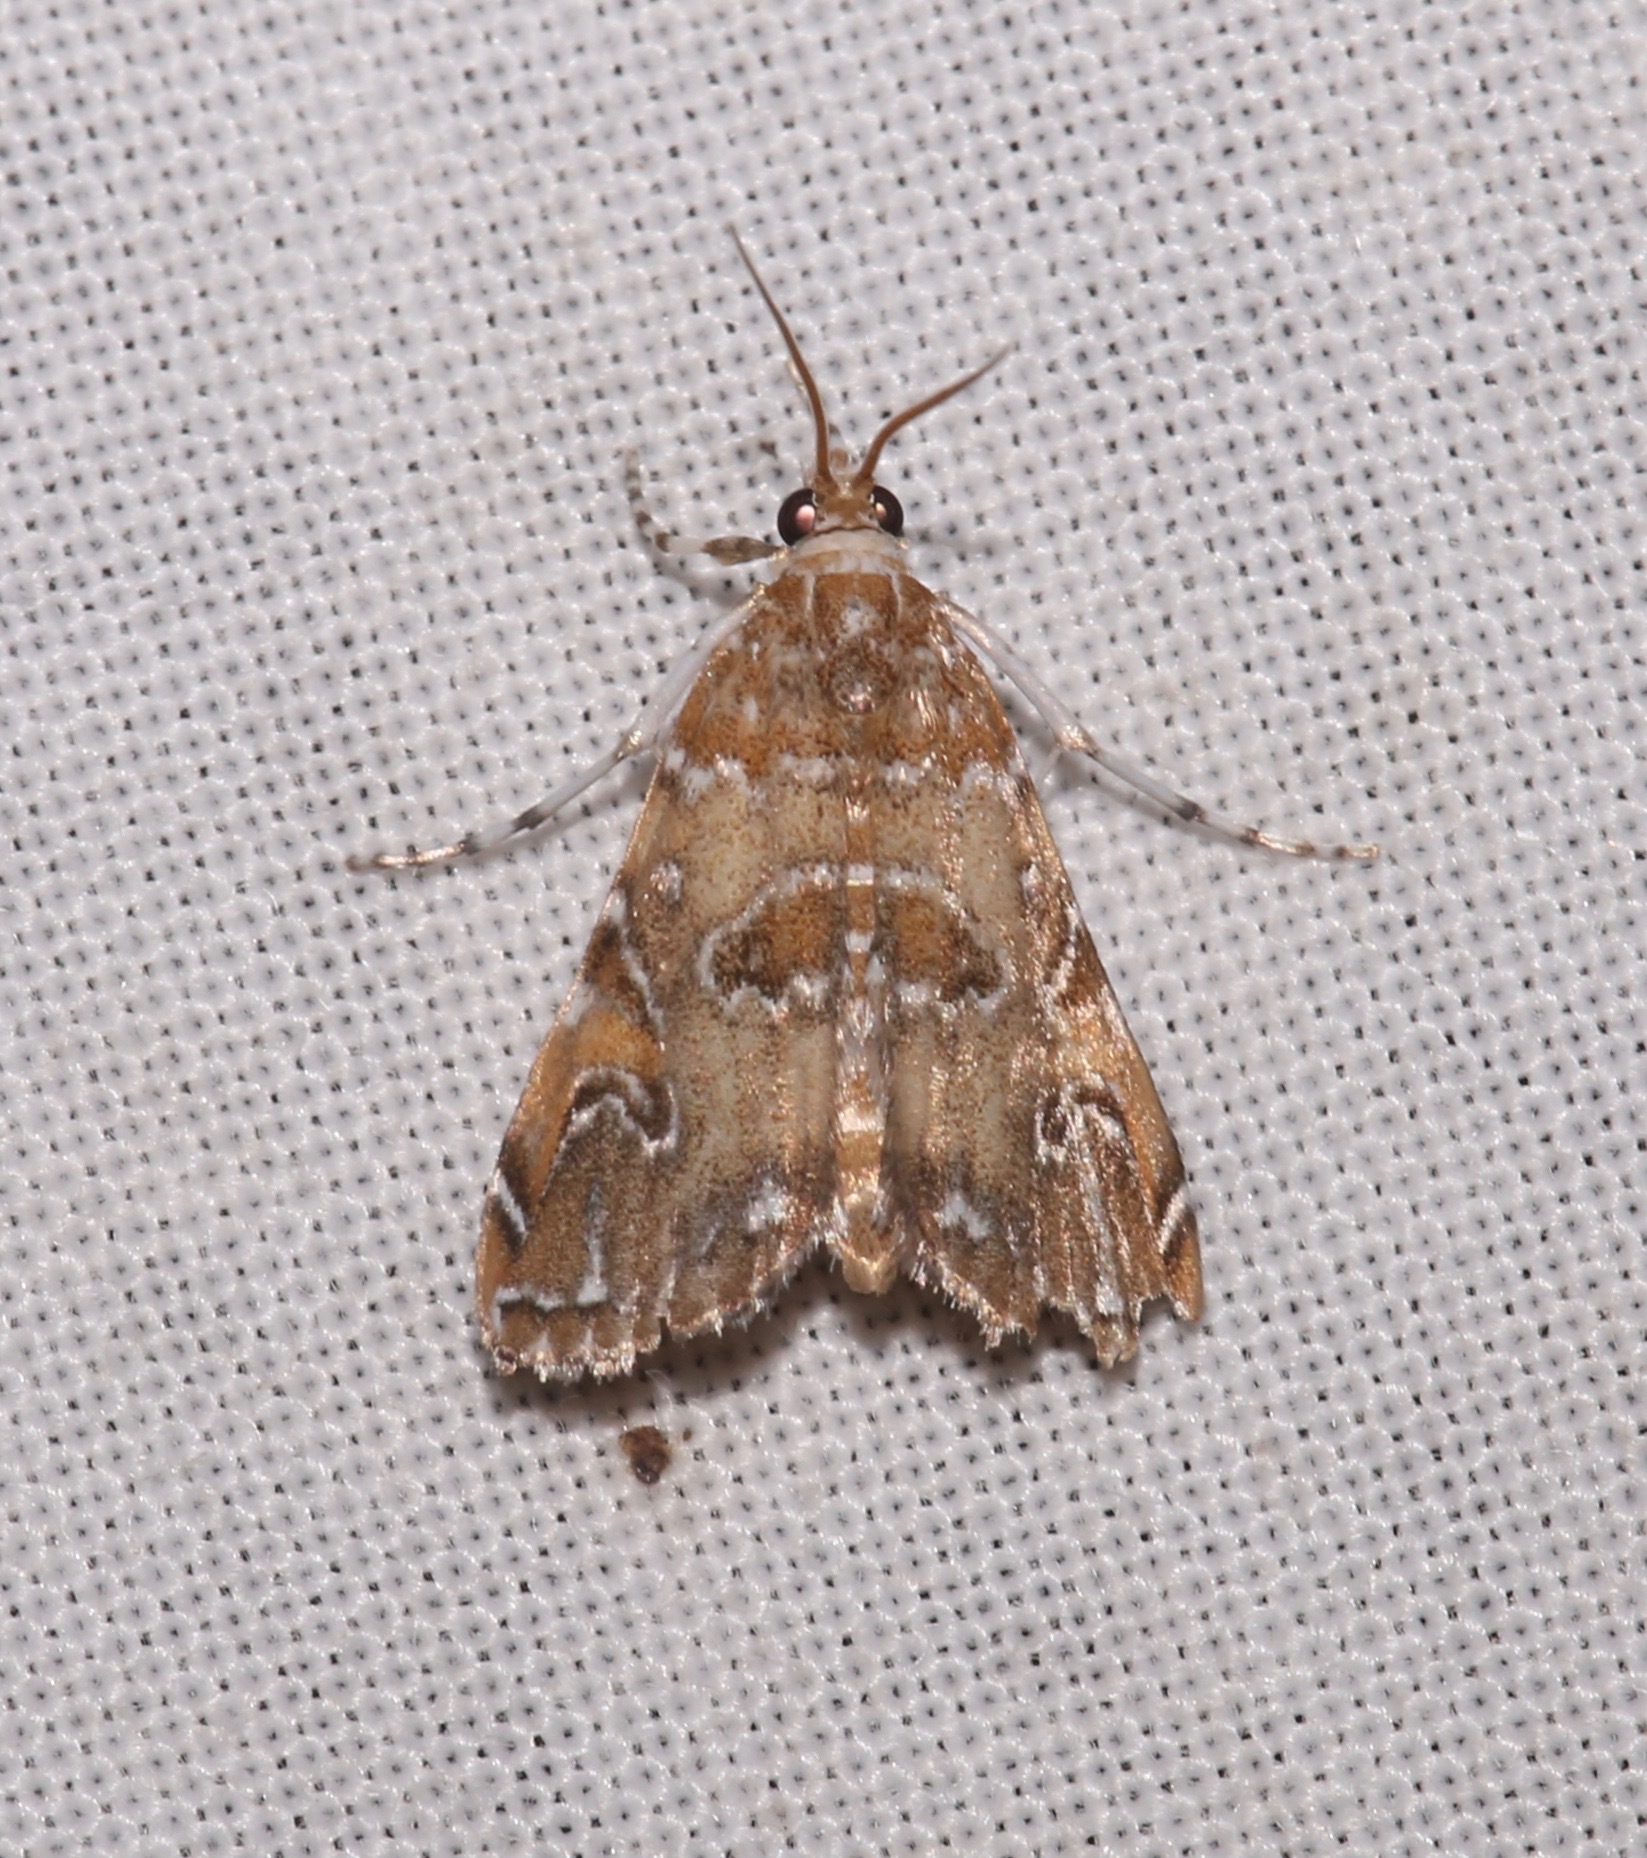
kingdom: Animalia
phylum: Arthropoda
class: Insecta
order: Lepidoptera
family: Crambidae
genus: Elophila
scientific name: Elophila gyralis
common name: Waterlily borer moth
